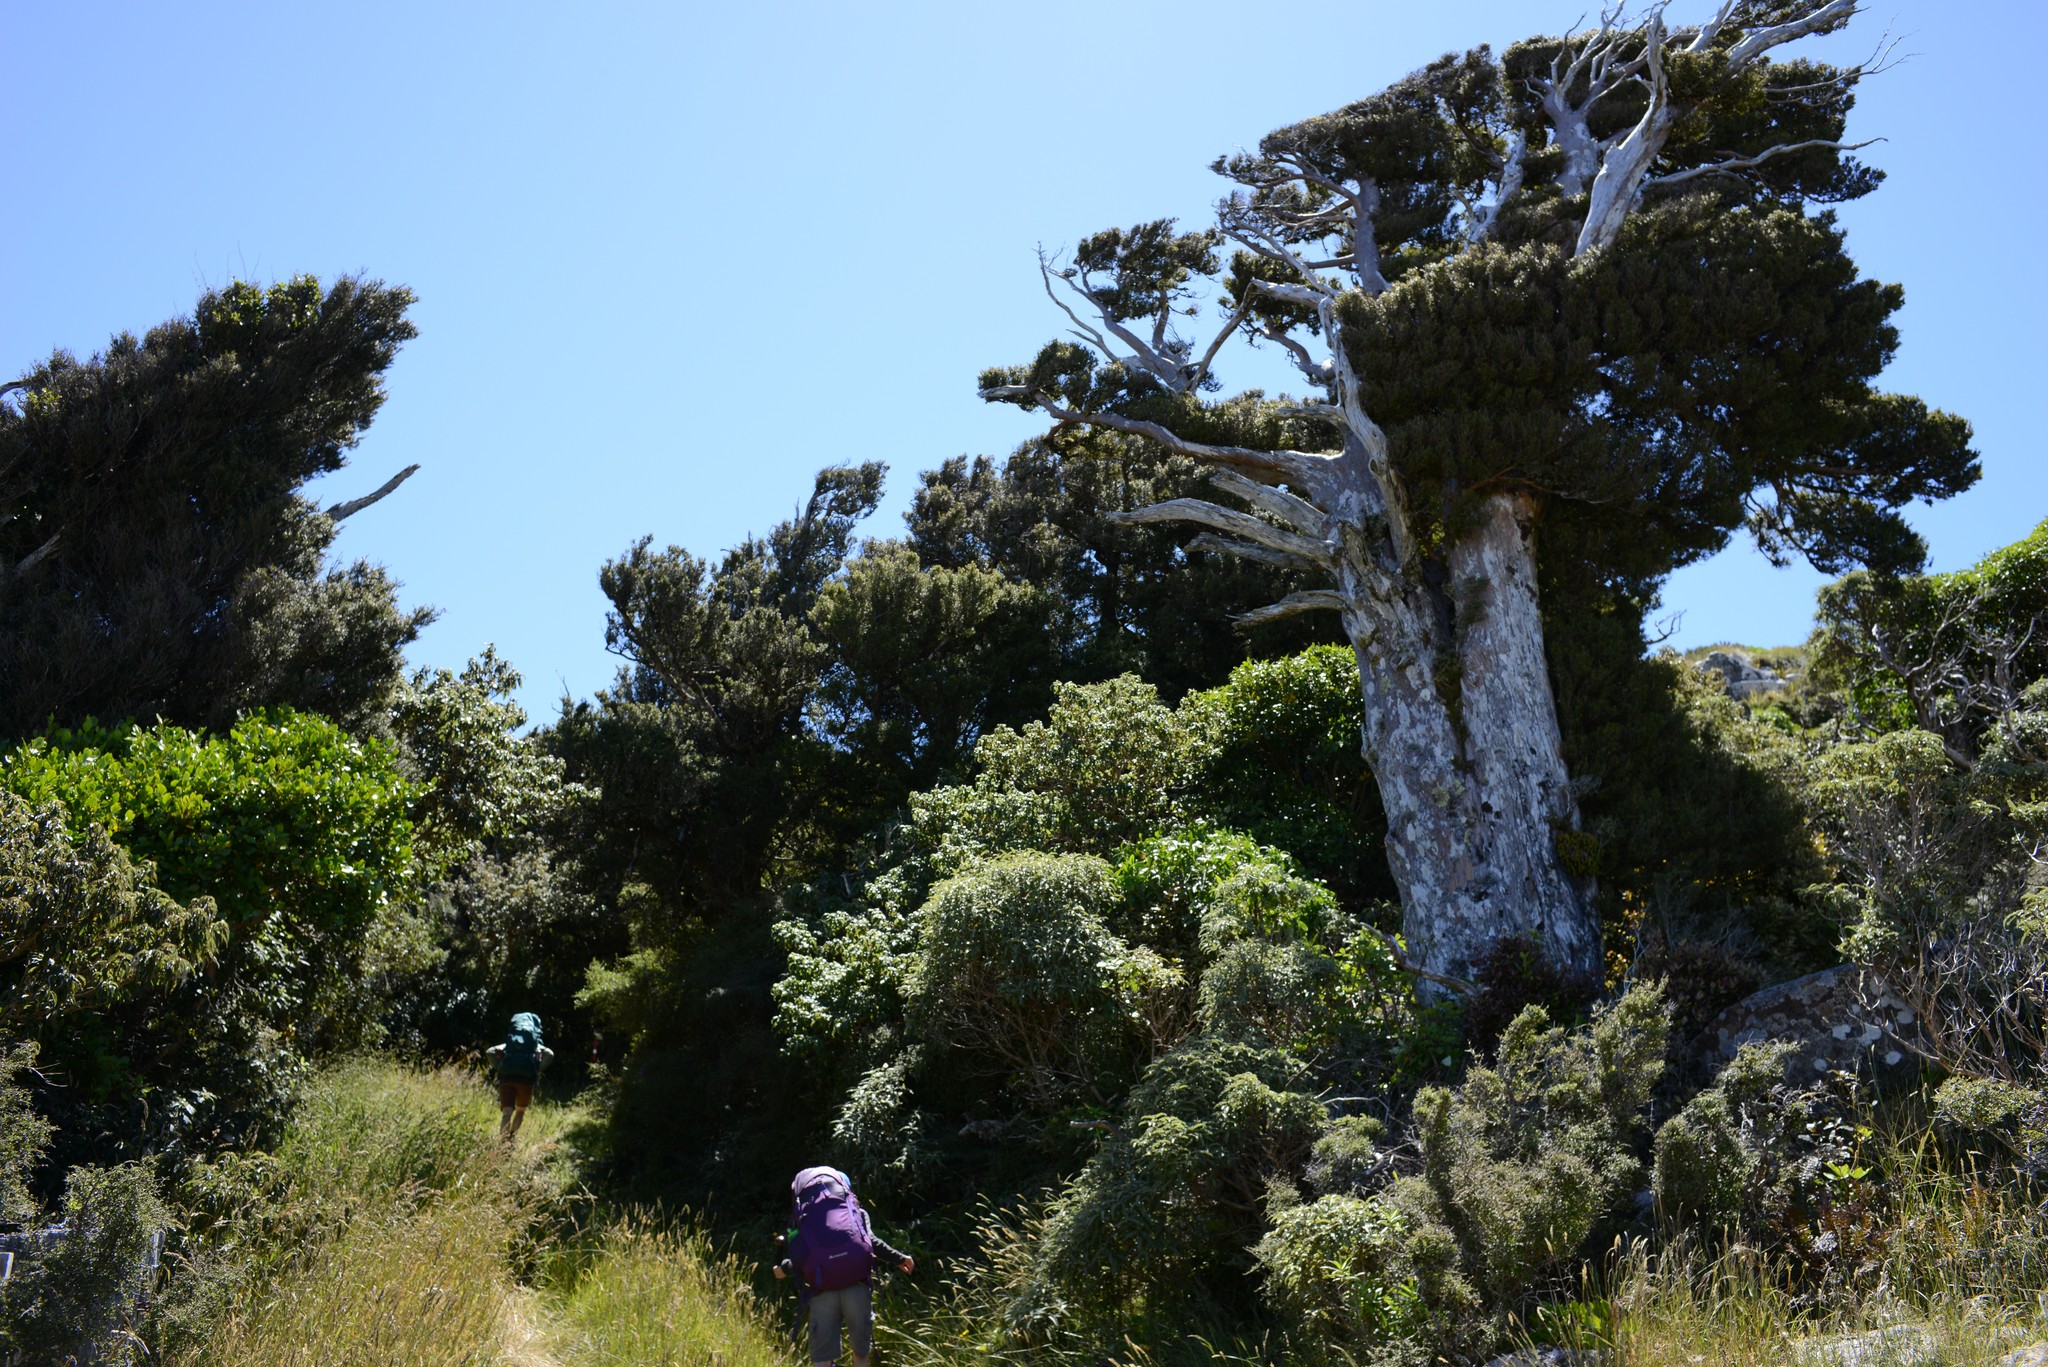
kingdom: Plantae
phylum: Tracheophyta
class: Pinopsida
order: Pinales
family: Podocarpaceae
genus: Podocarpus
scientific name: Podocarpus laetus
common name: Hall's totara
